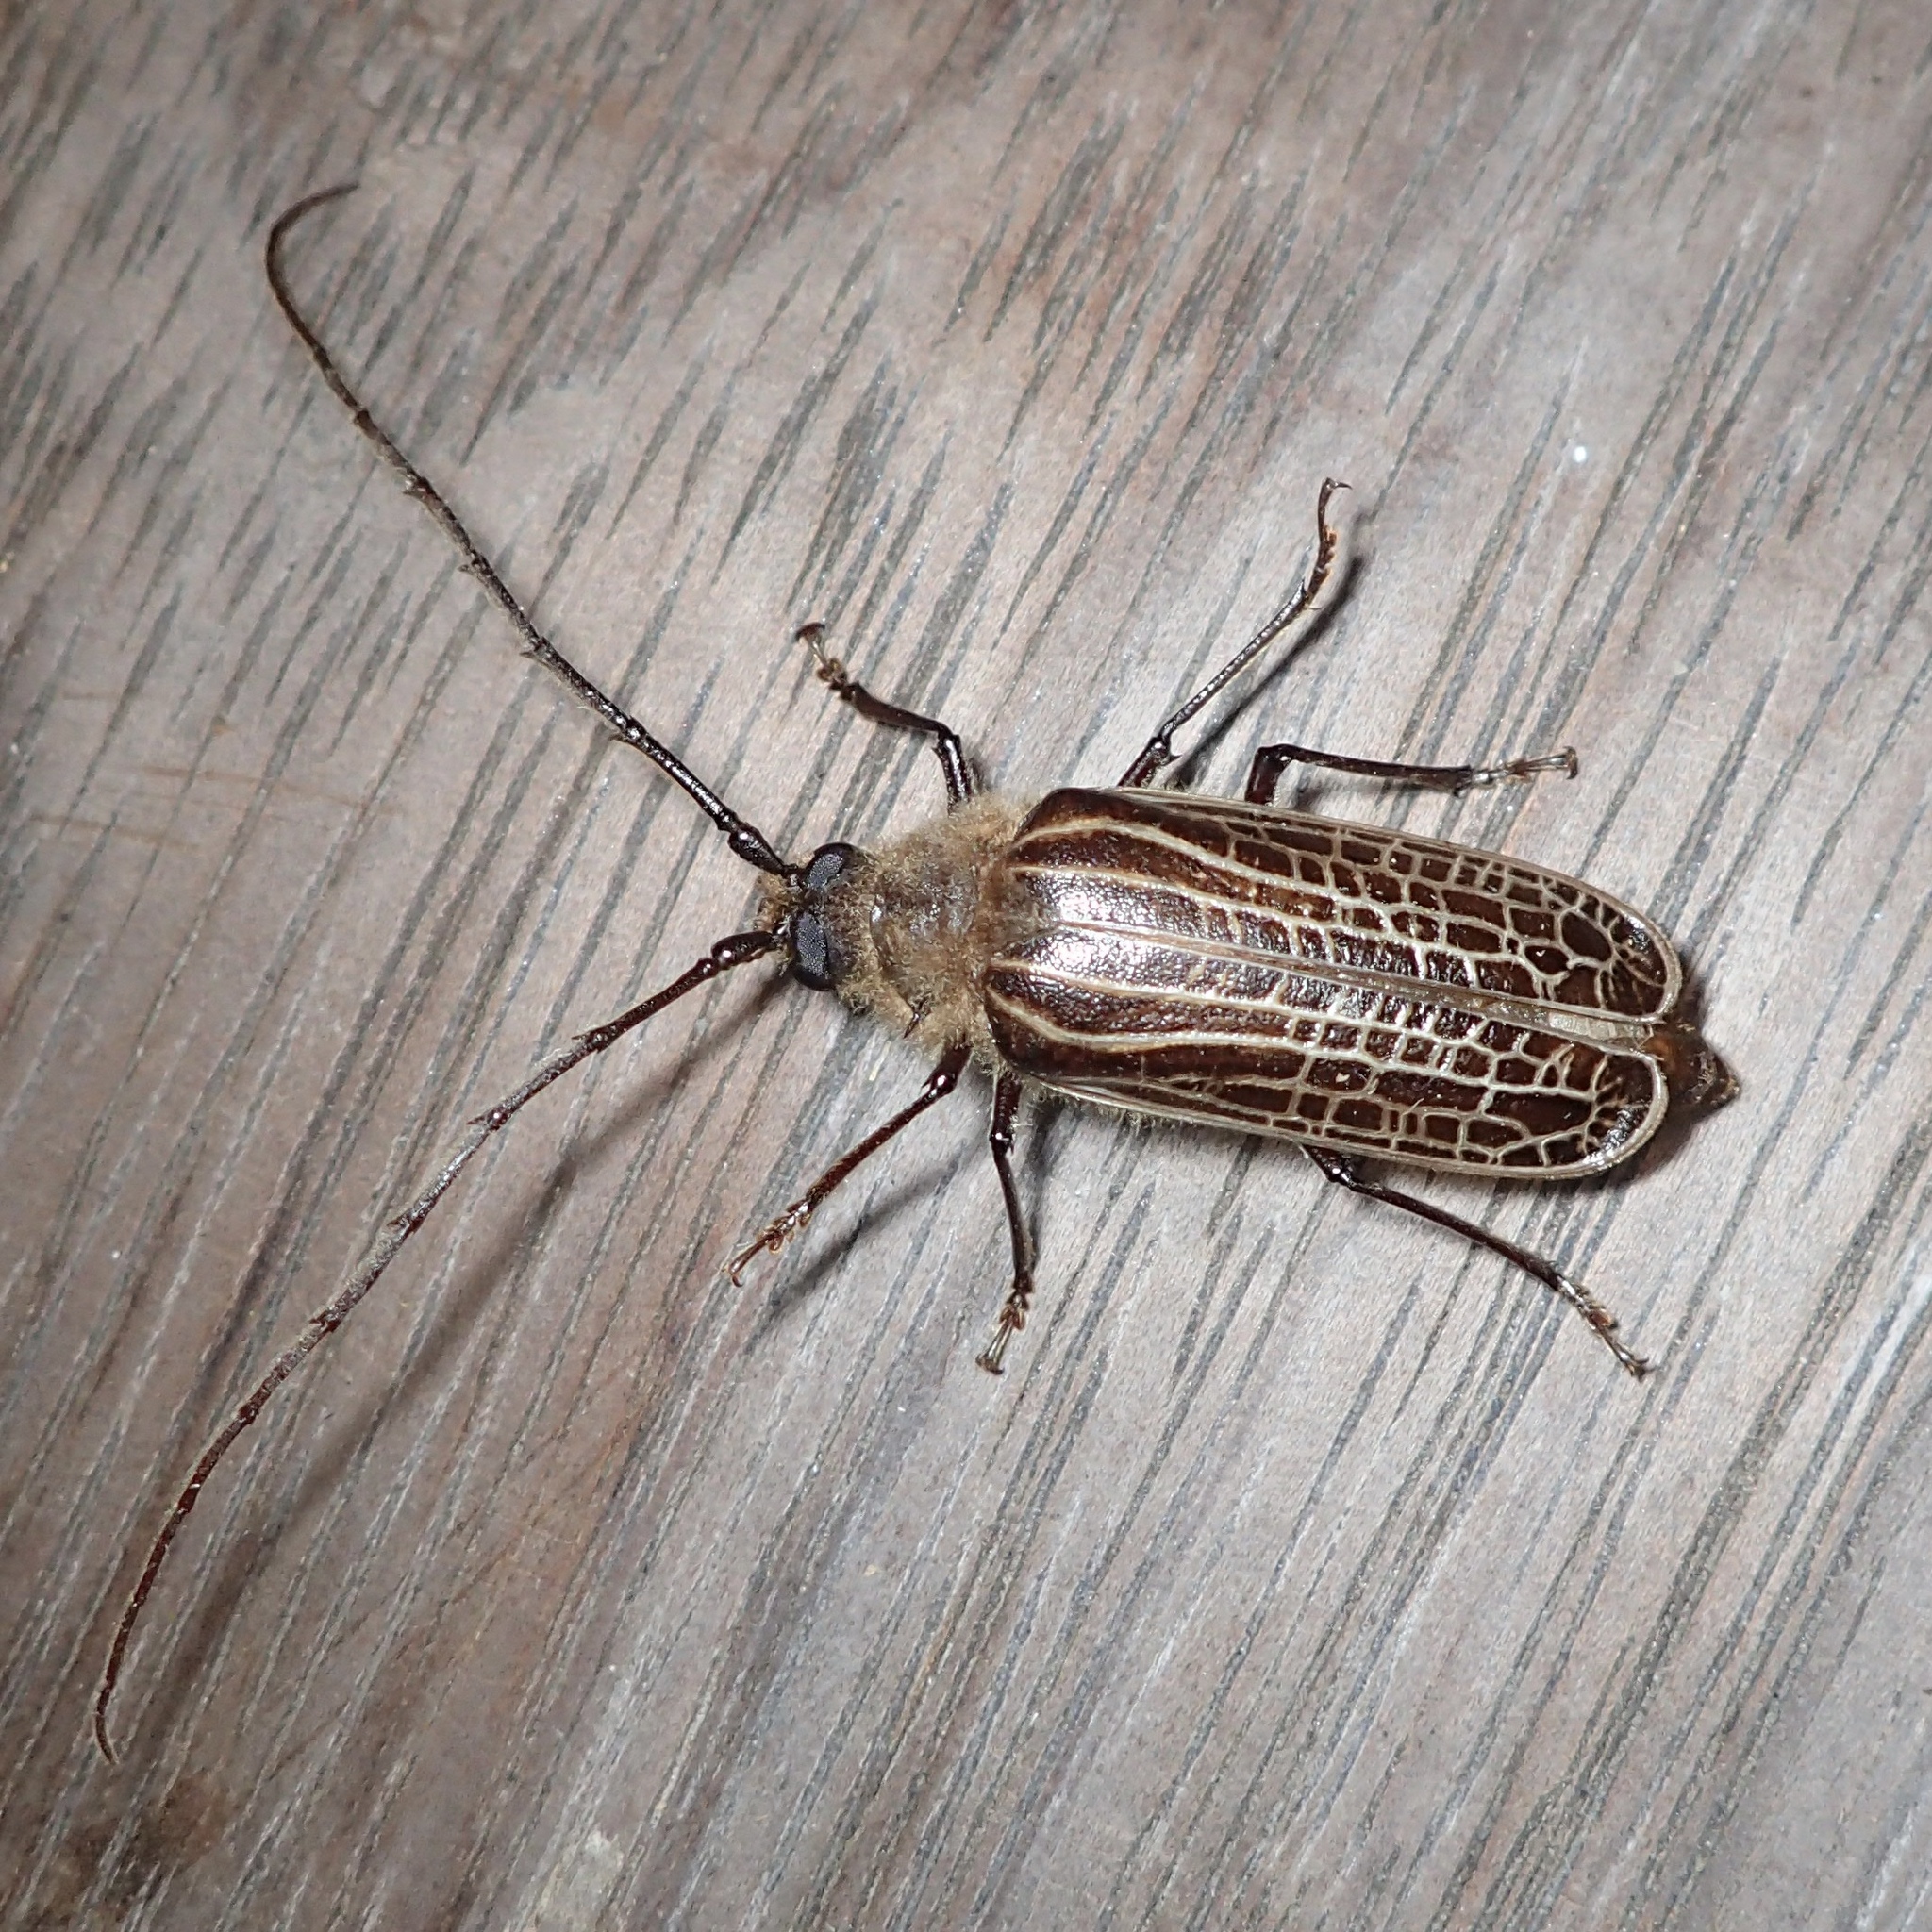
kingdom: Animalia
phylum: Arthropoda
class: Insecta
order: Coleoptera
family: Cerambycidae
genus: Prionoplus
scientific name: Prionoplus reticularis
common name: Huhu beetle
